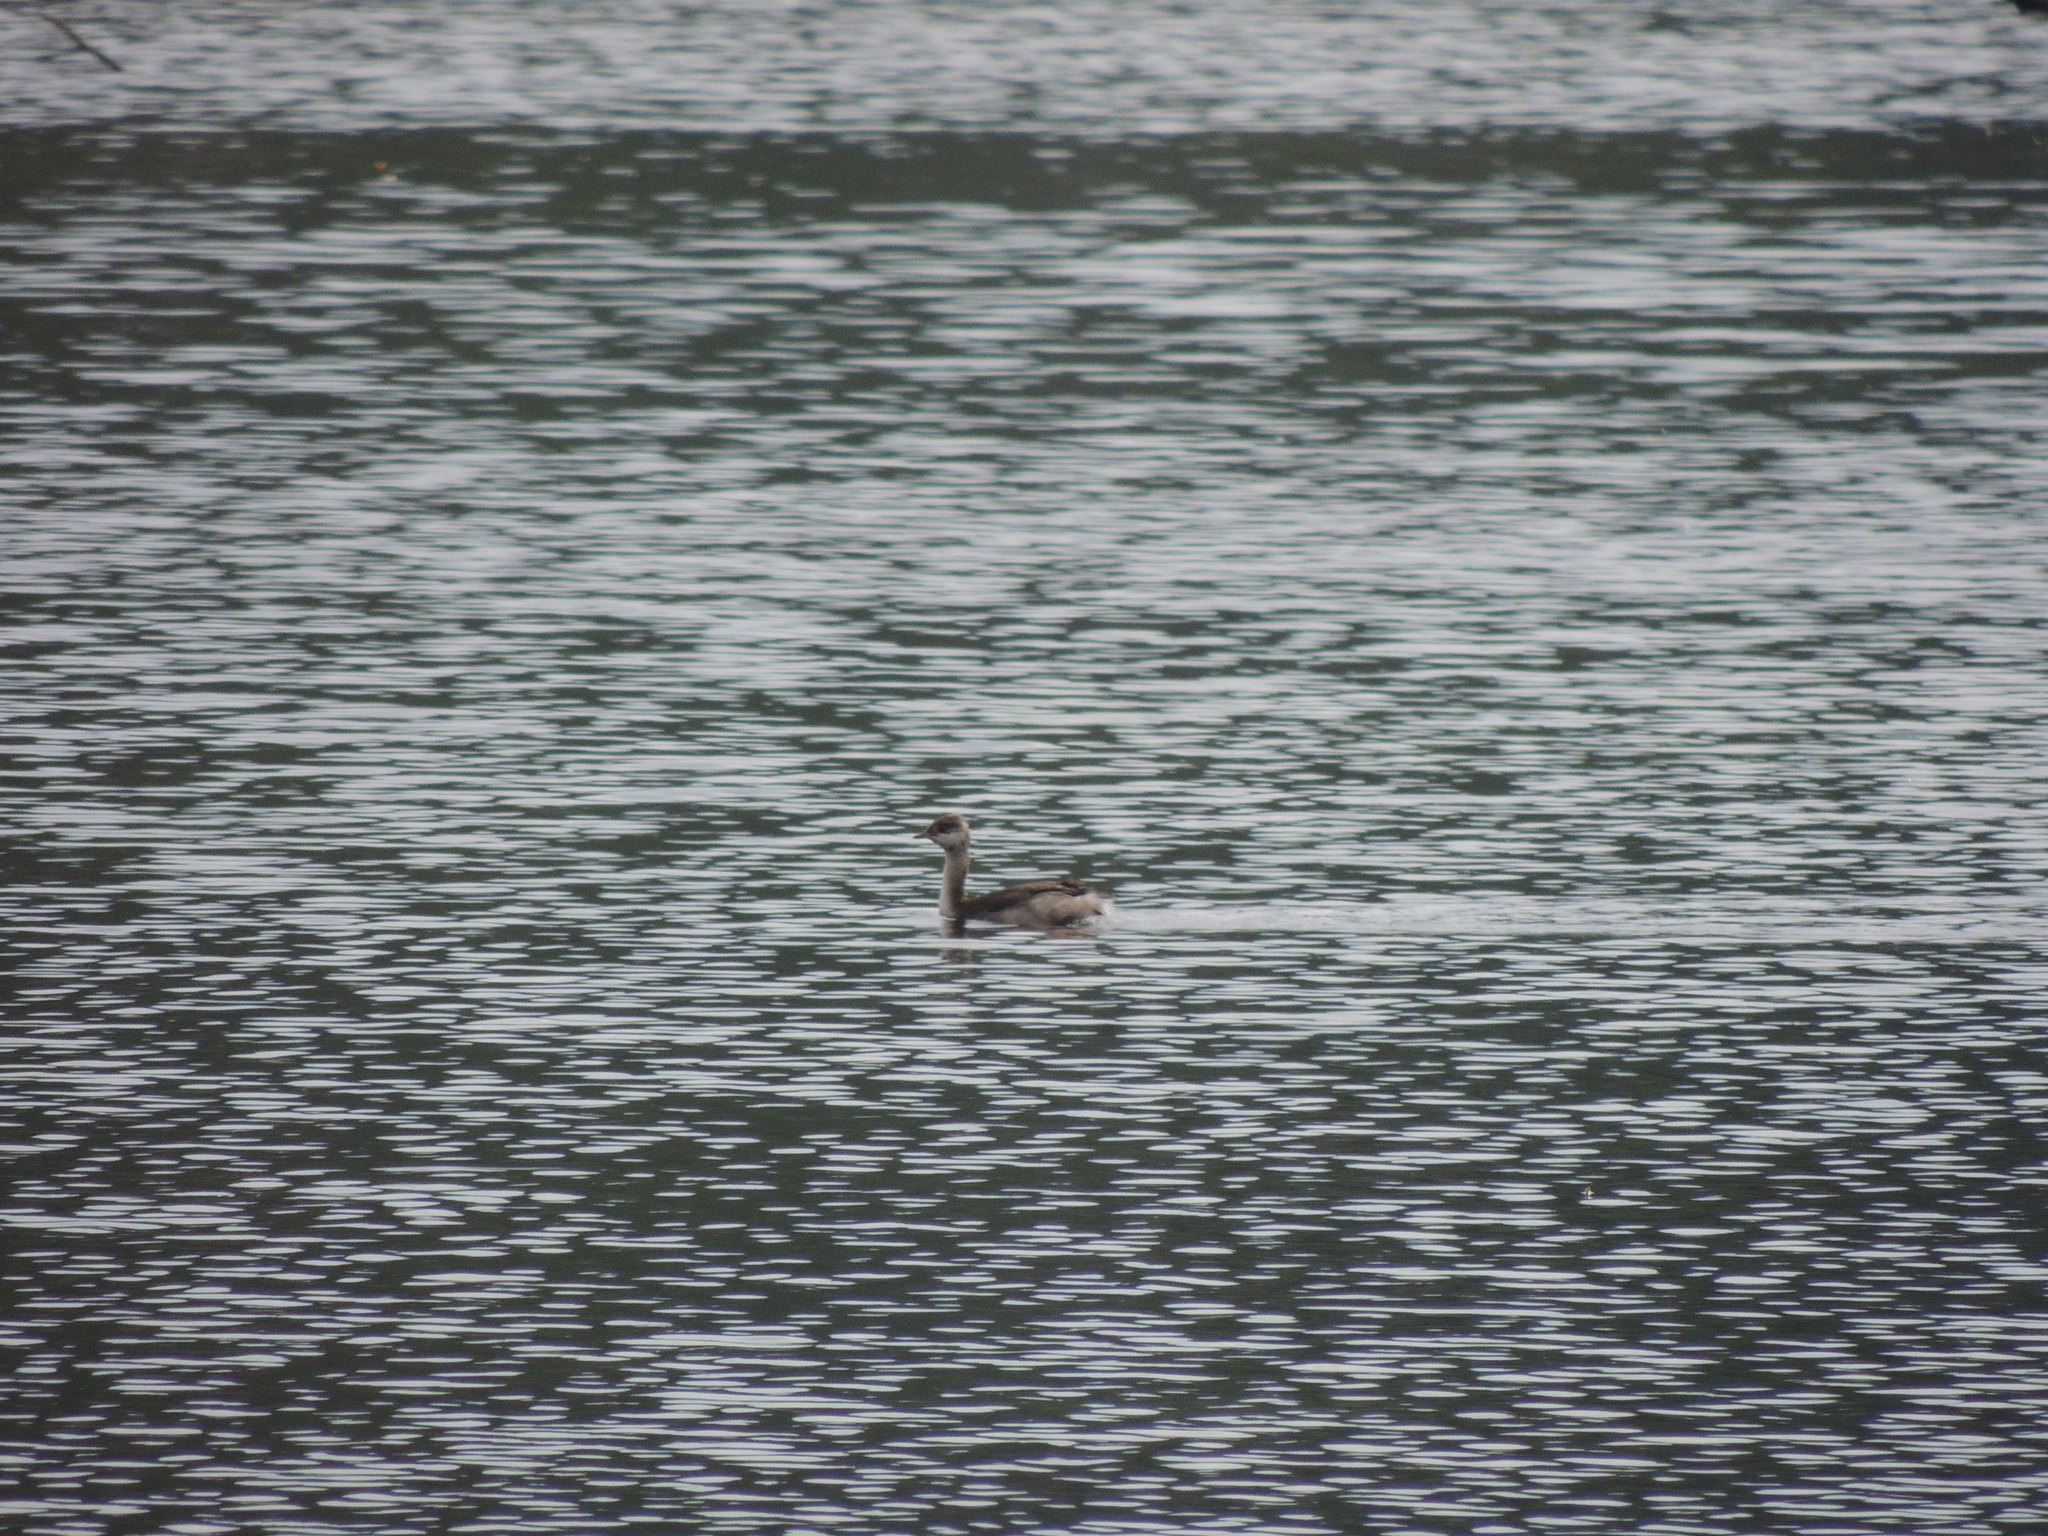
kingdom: Animalia
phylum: Chordata
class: Aves
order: Podicipediformes
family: Podicipedidae
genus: Podiceps
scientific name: Podiceps auritus
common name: Horned grebe
